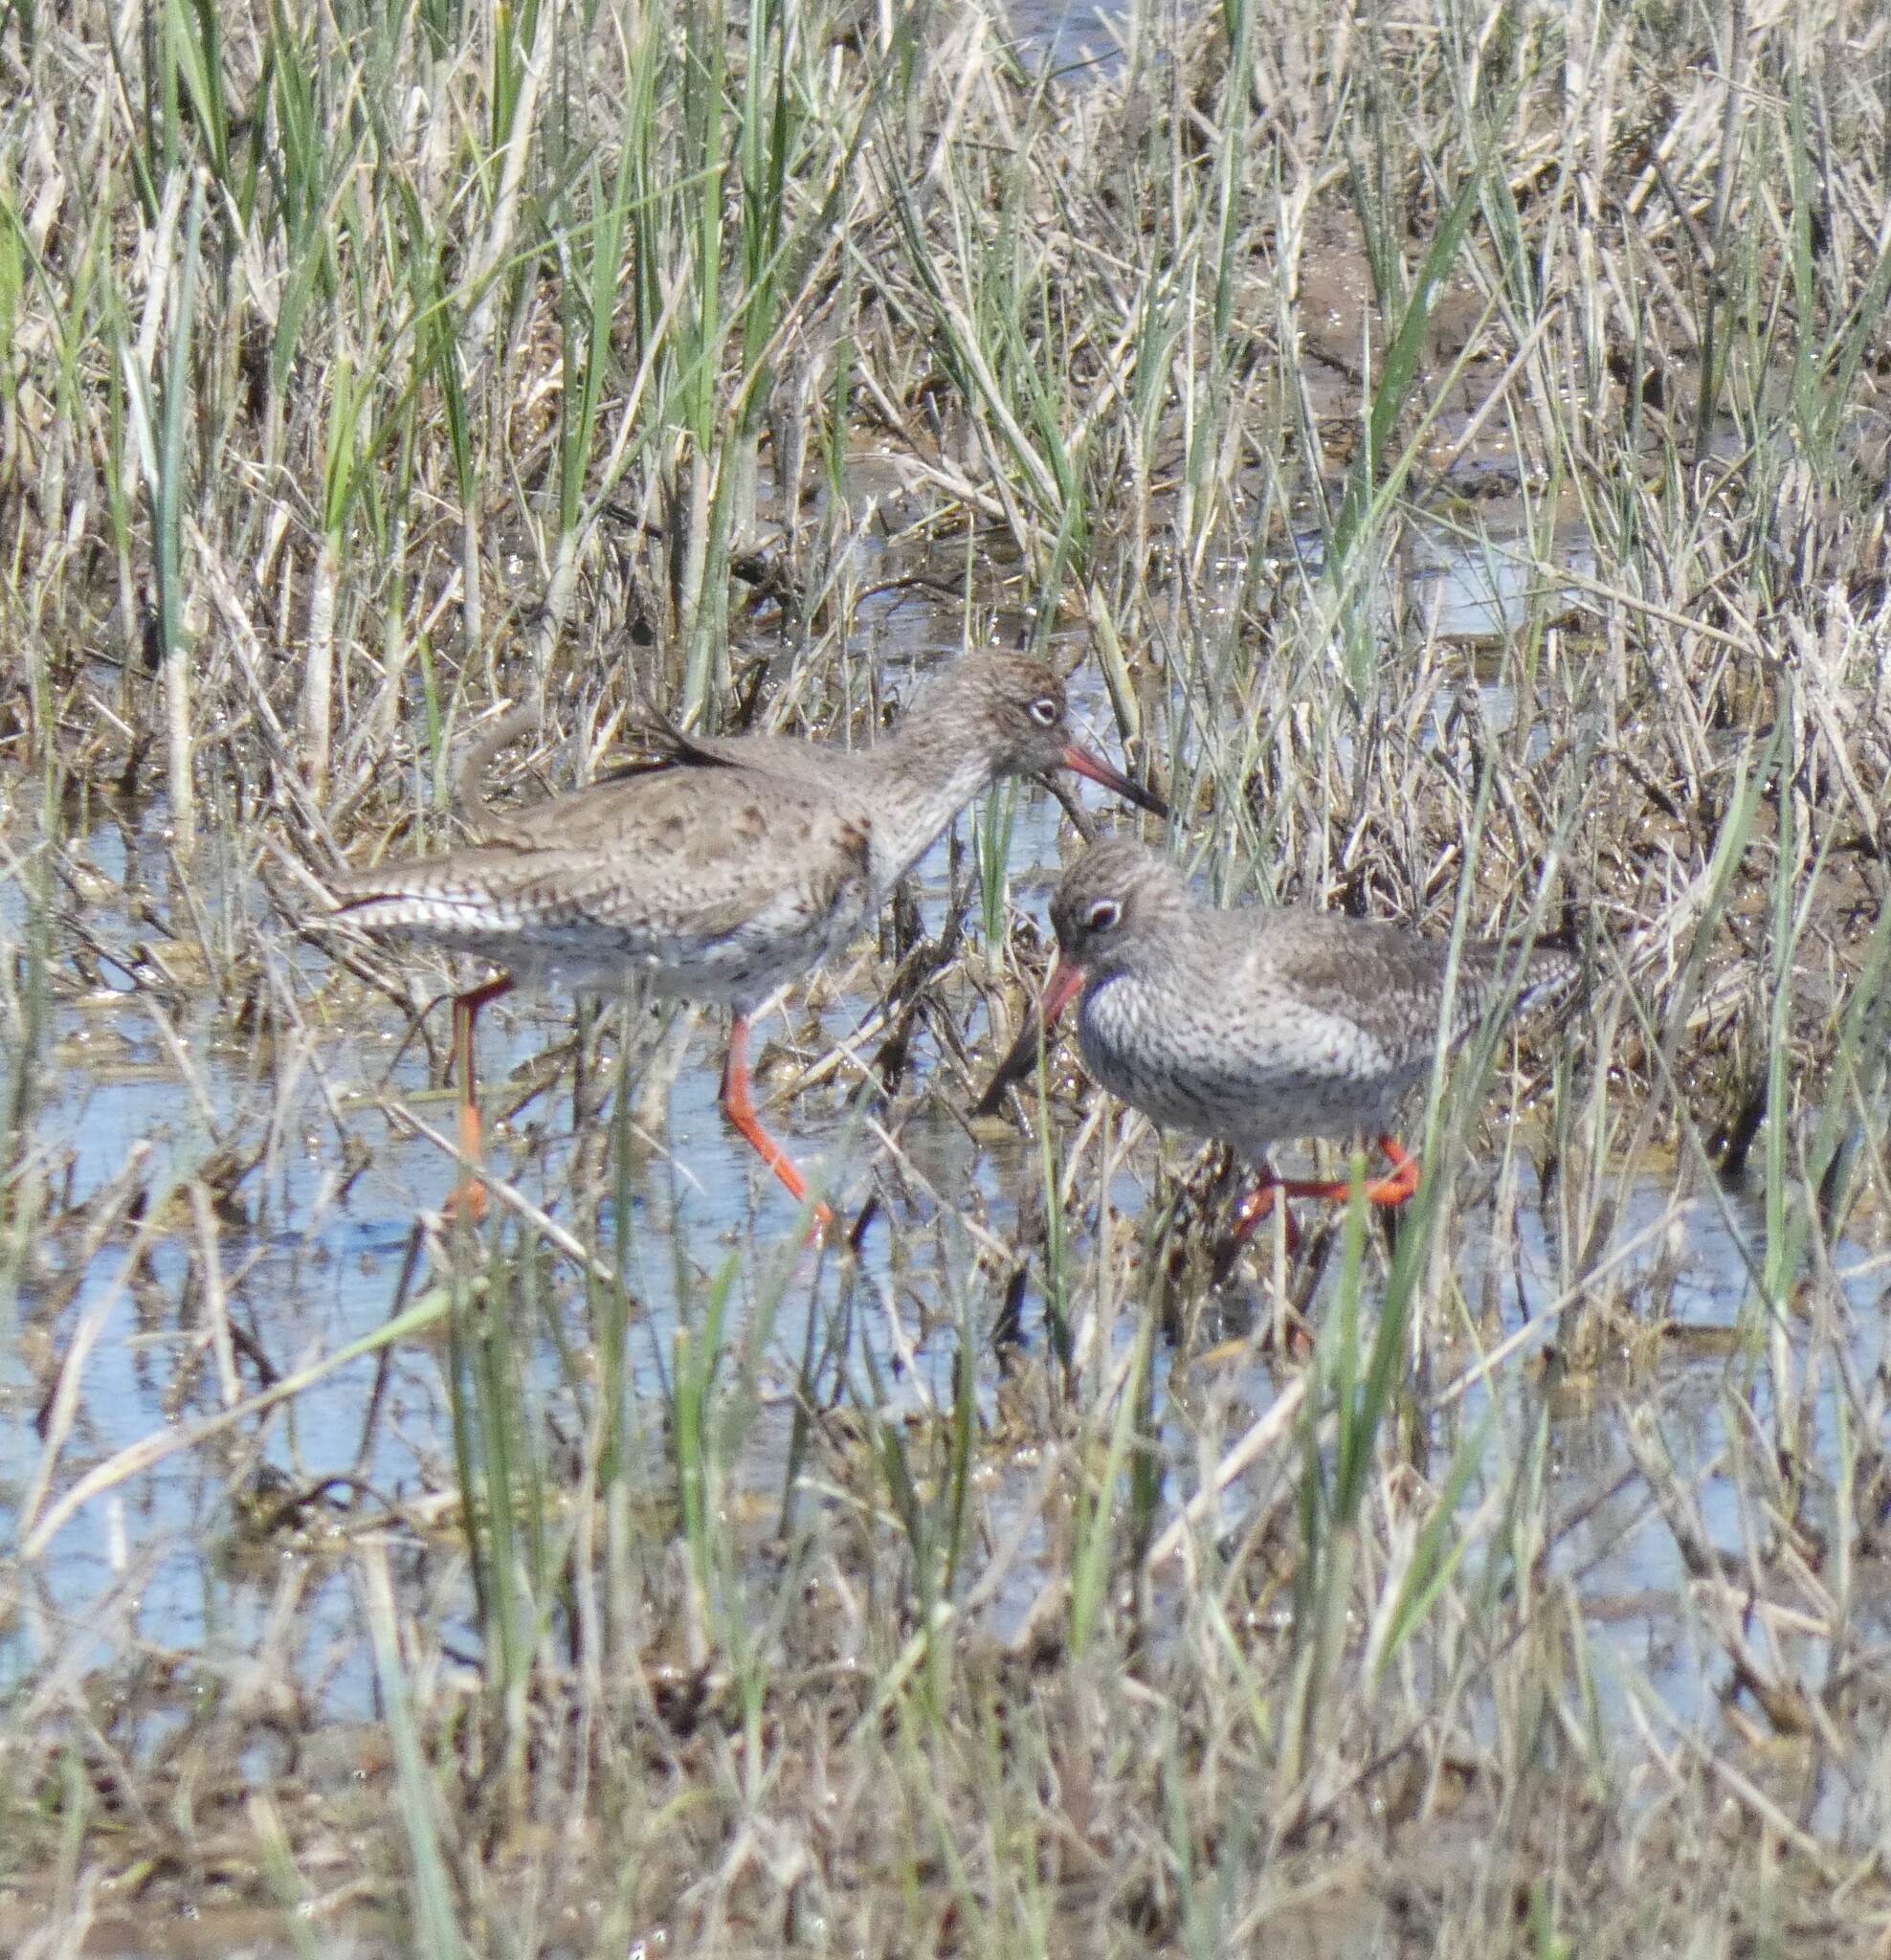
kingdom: Animalia
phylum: Chordata
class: Aves
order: Charadriiformes
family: Scolopacidae
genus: Tringa
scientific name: Tringa totanus
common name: Common redshank
